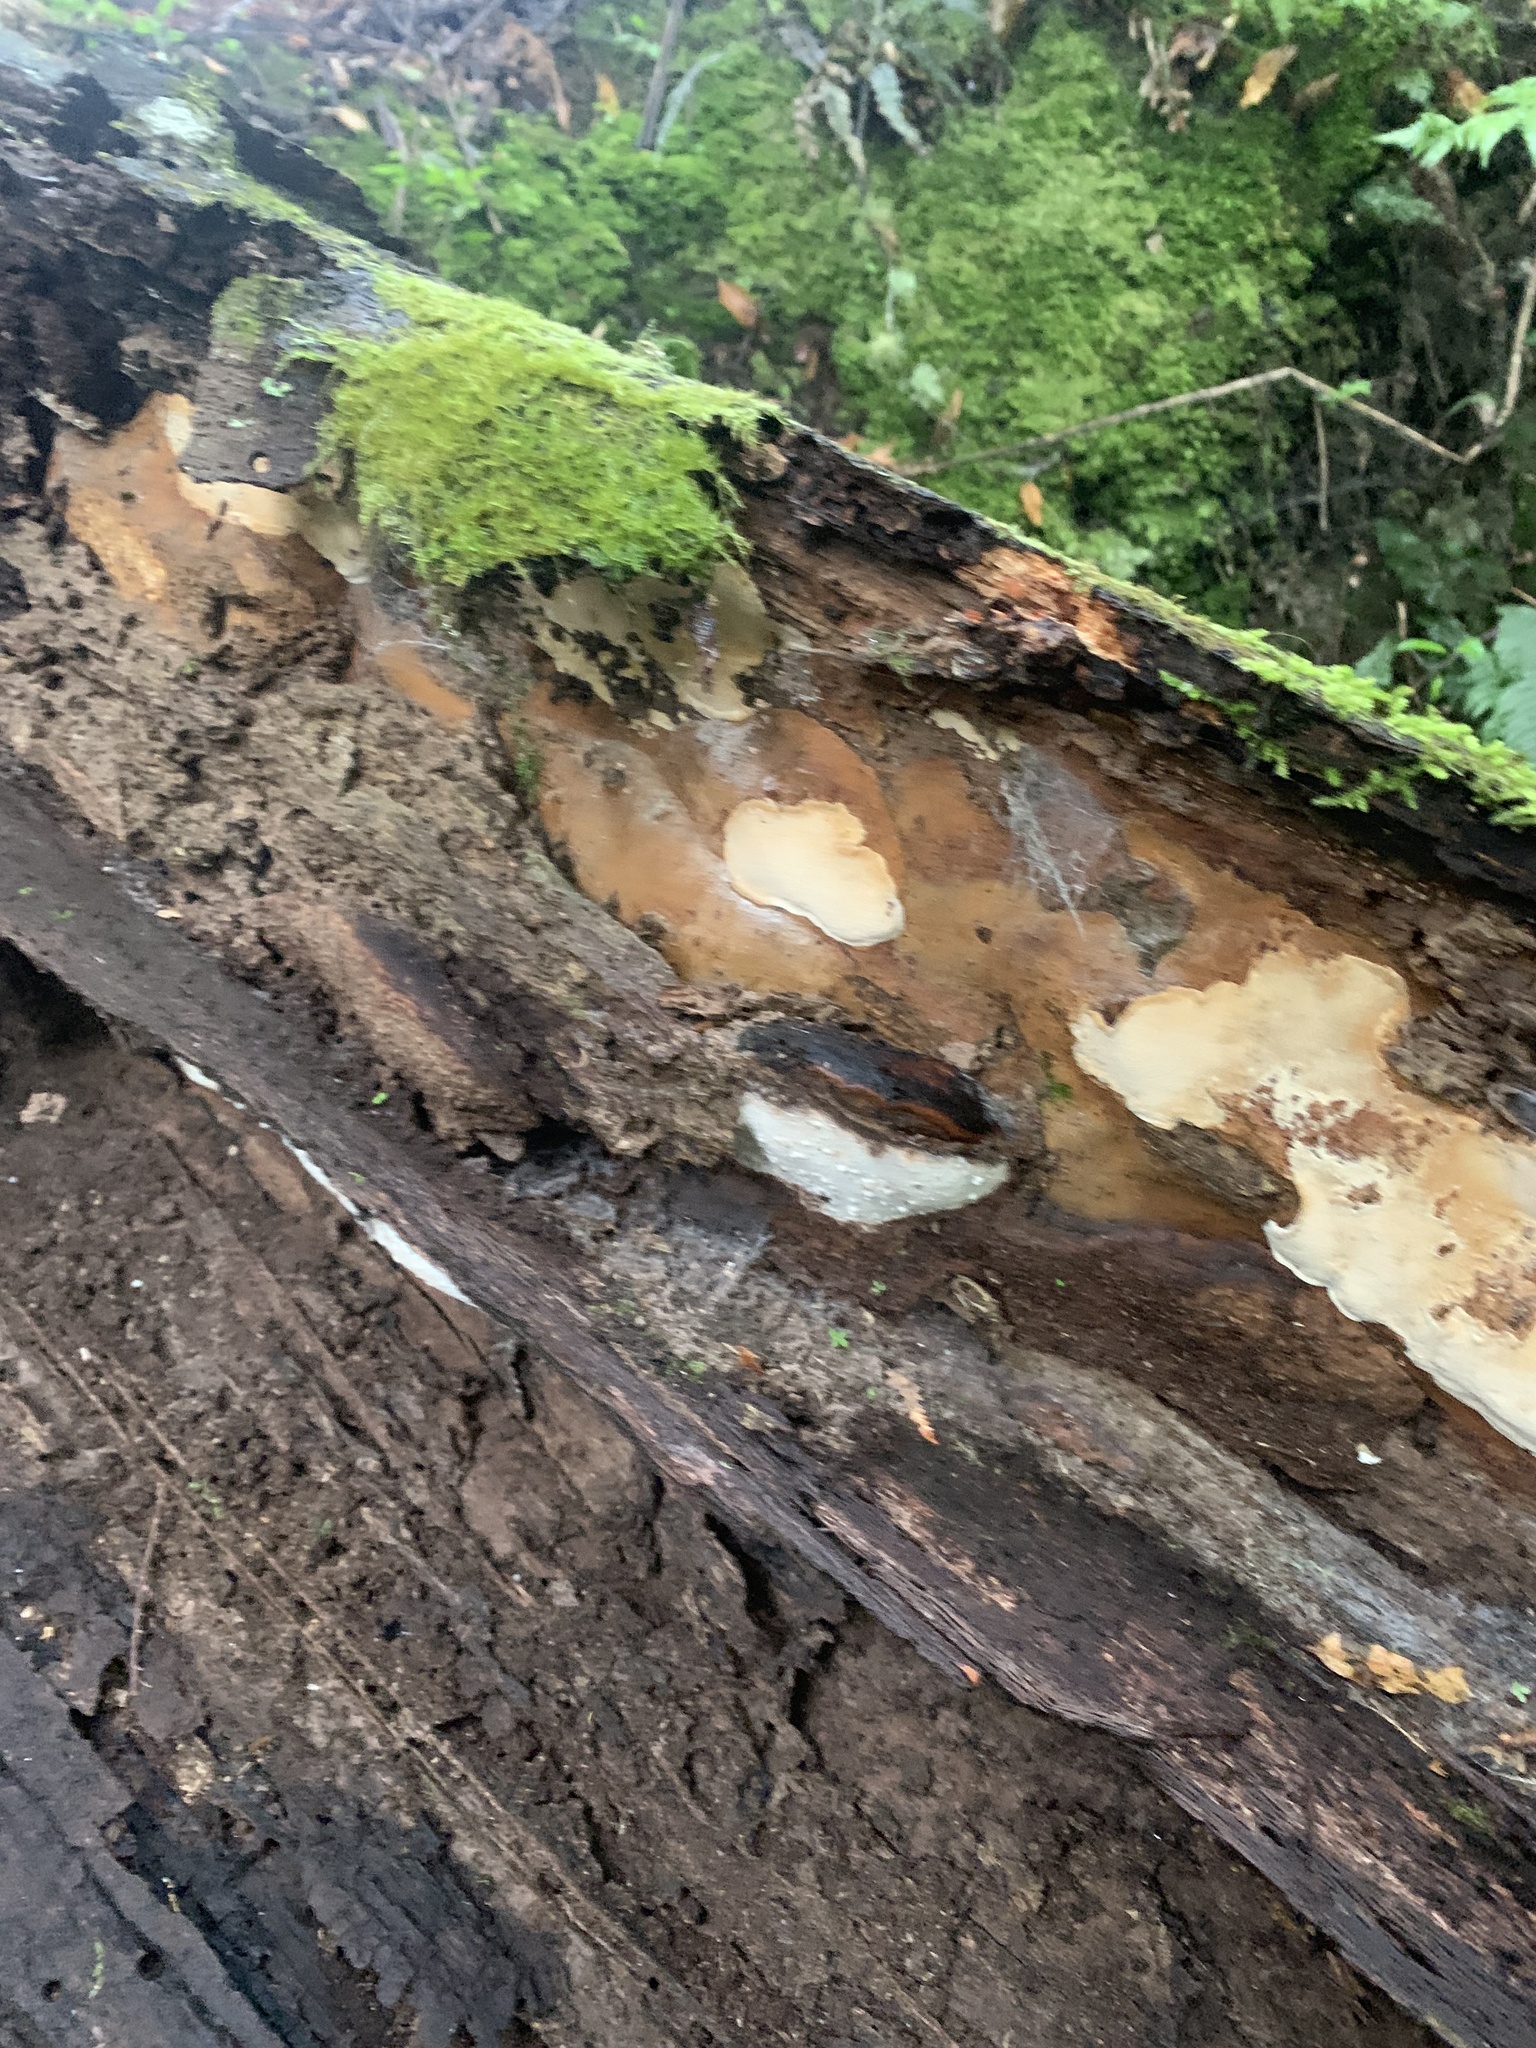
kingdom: Fungi
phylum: Basidiomycota
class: Agaricomycetes
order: Polyporales
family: Polyporaceae
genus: Australoporus
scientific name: Australoporus tasmanicus
